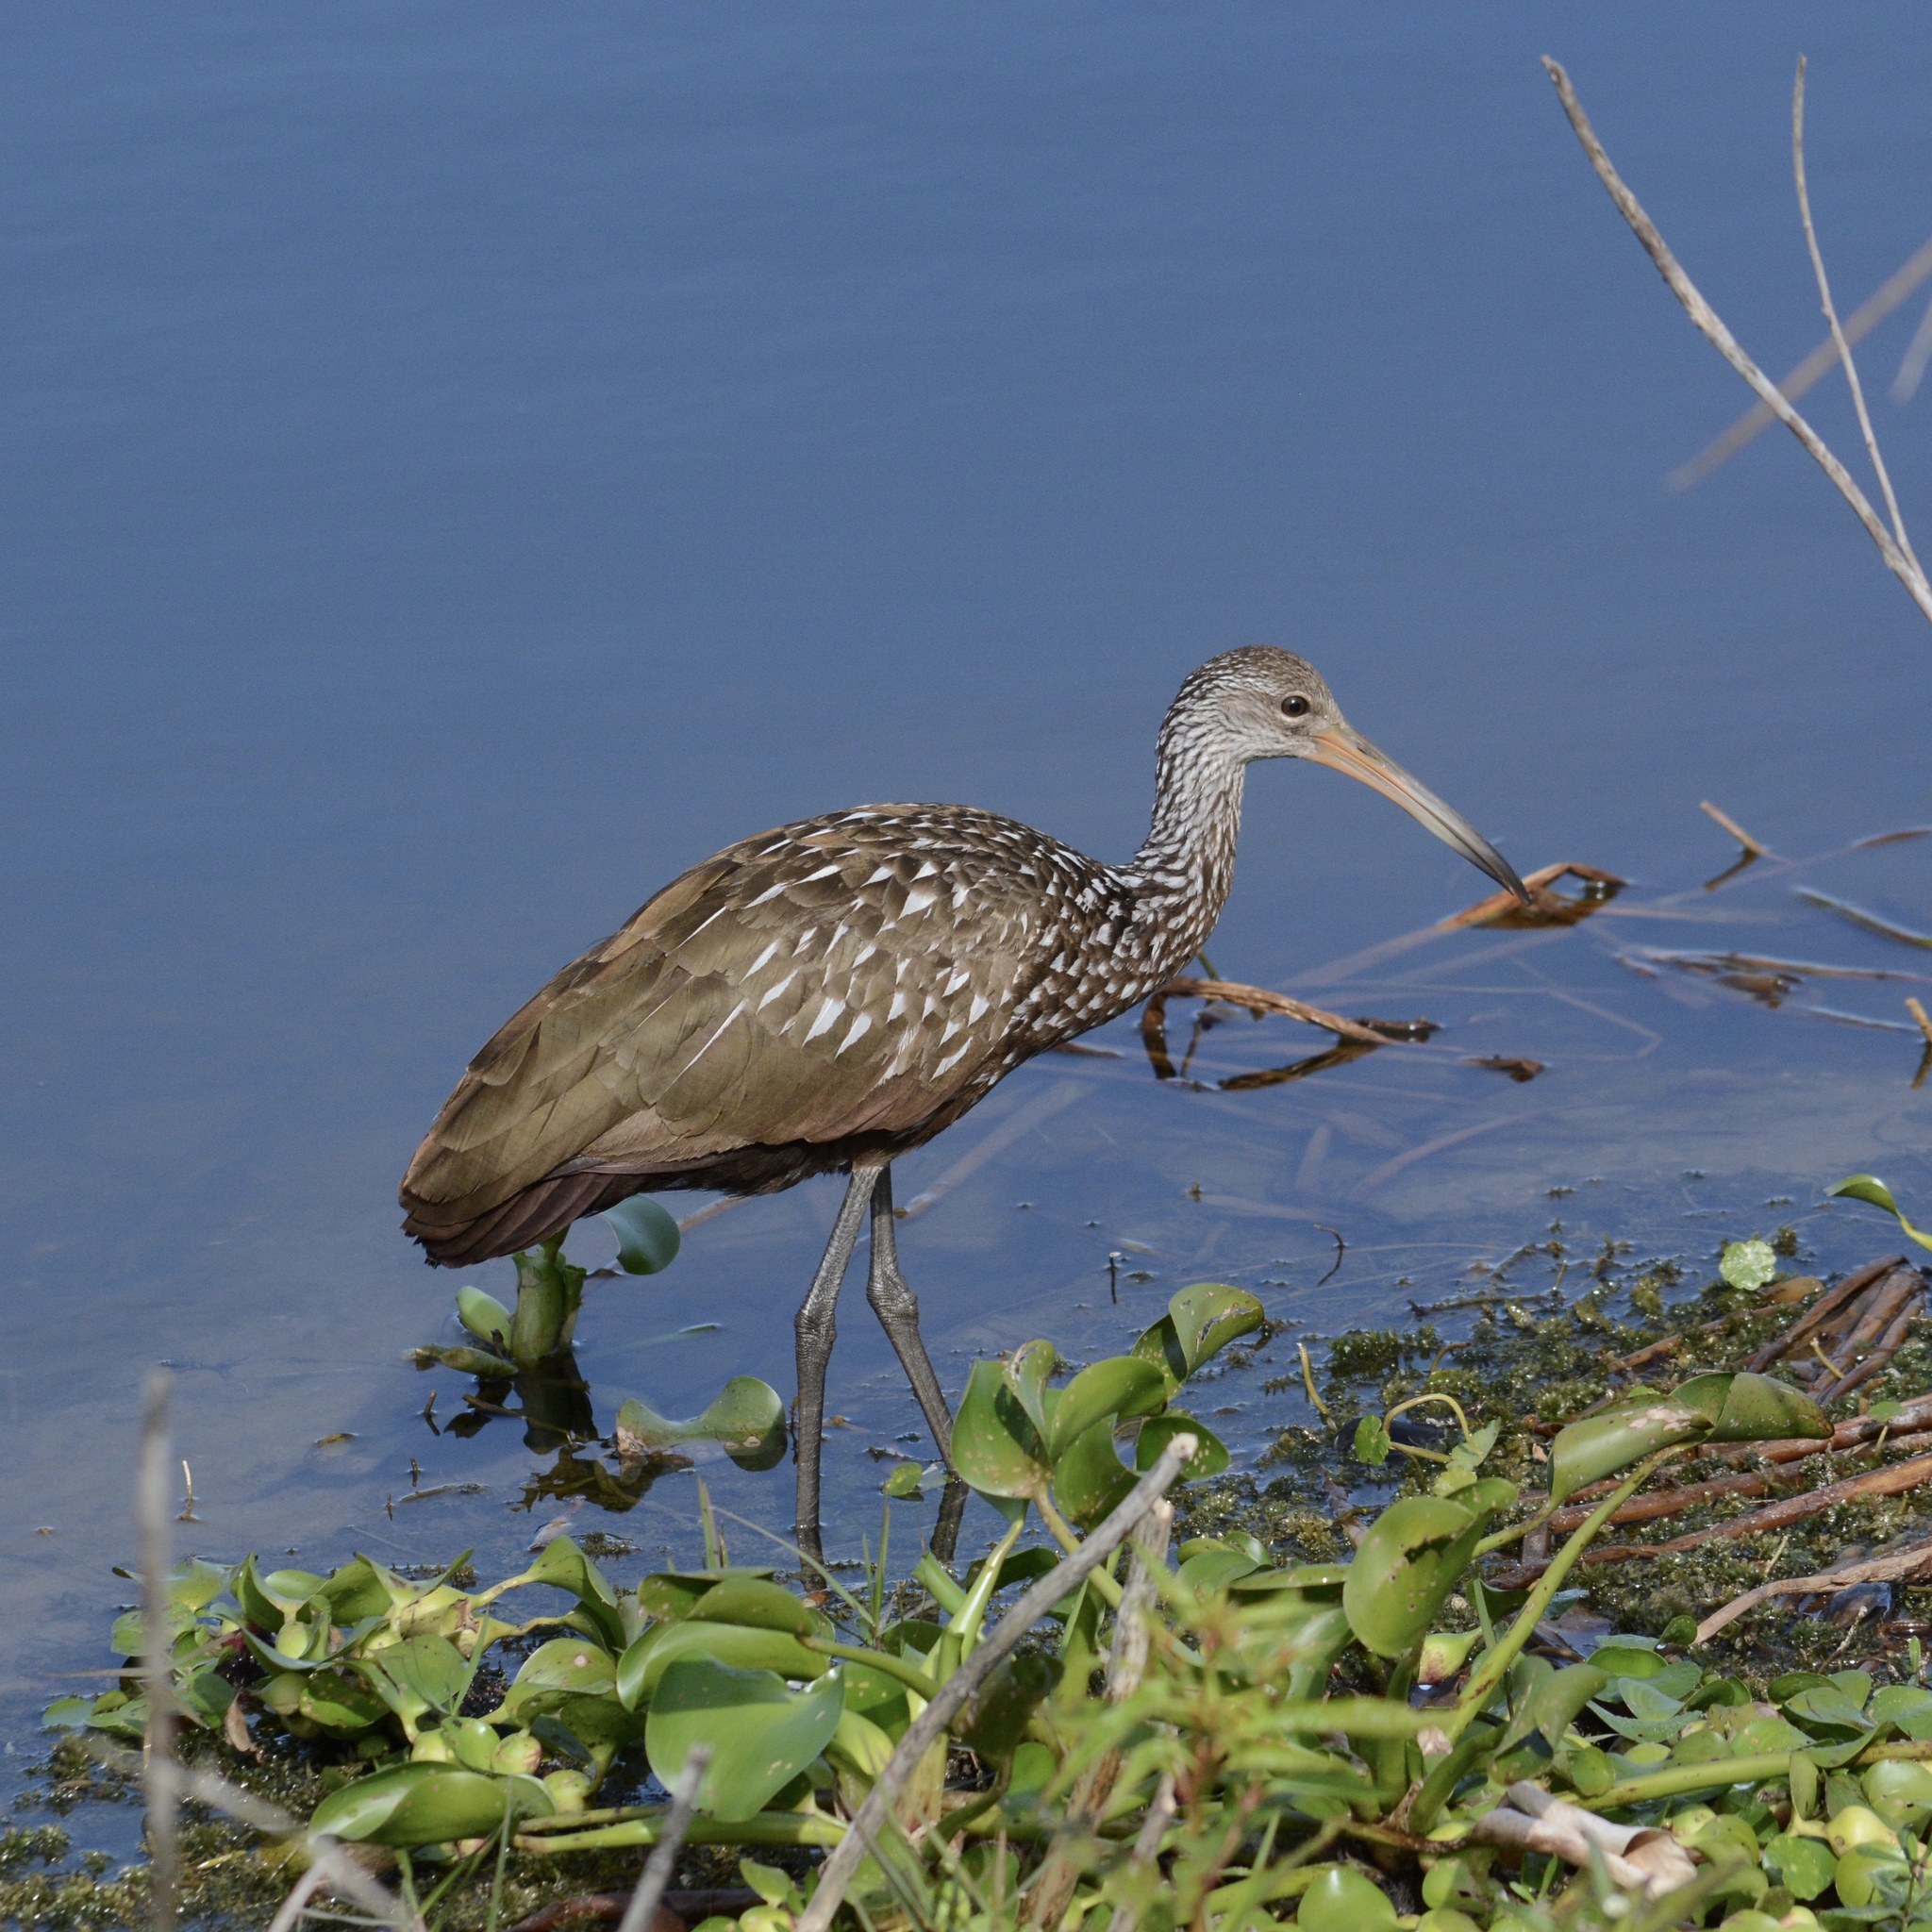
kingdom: Animalia
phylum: Chordata
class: Aves
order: Gruiformes
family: Aramidae
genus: Aramus
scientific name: Aramus guarauna
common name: Limpkin
